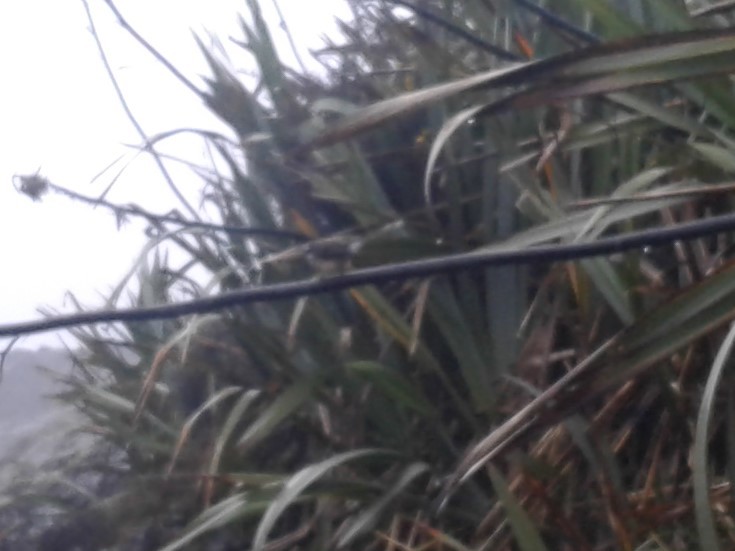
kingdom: Animalia
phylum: Chordata
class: Aves
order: Passeriformes
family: Rhipiduridae
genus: Rhipidura
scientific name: Rhipidura fuliginosa
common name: New zealand fantail
